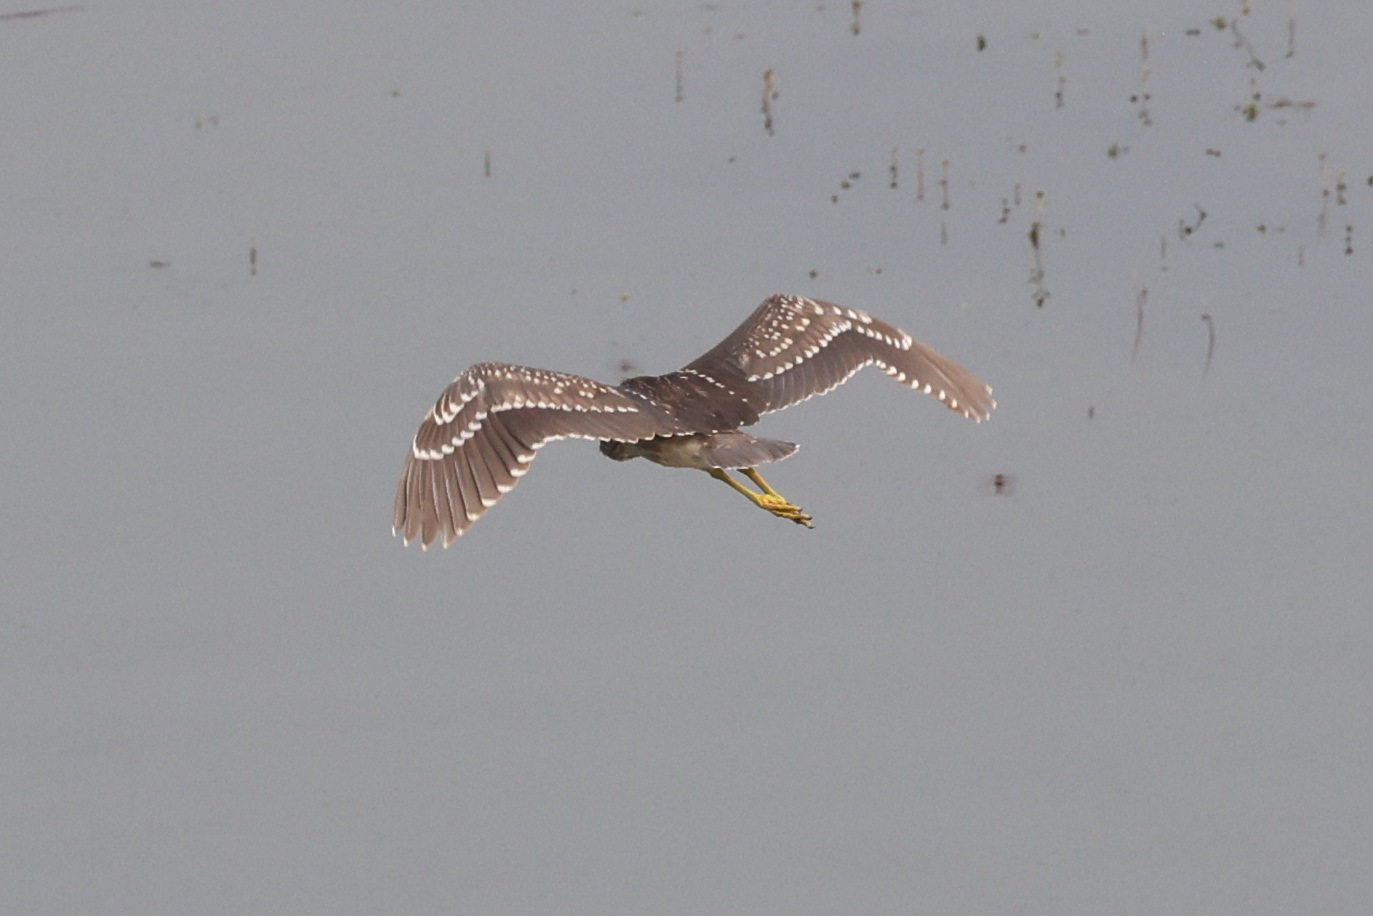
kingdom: Animalia
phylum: Chordata
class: Aves
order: Pelecaniformes
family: Ardeidae
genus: Nycticorax
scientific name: Nycticorax nycticorax
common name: Black-crowned night heron
